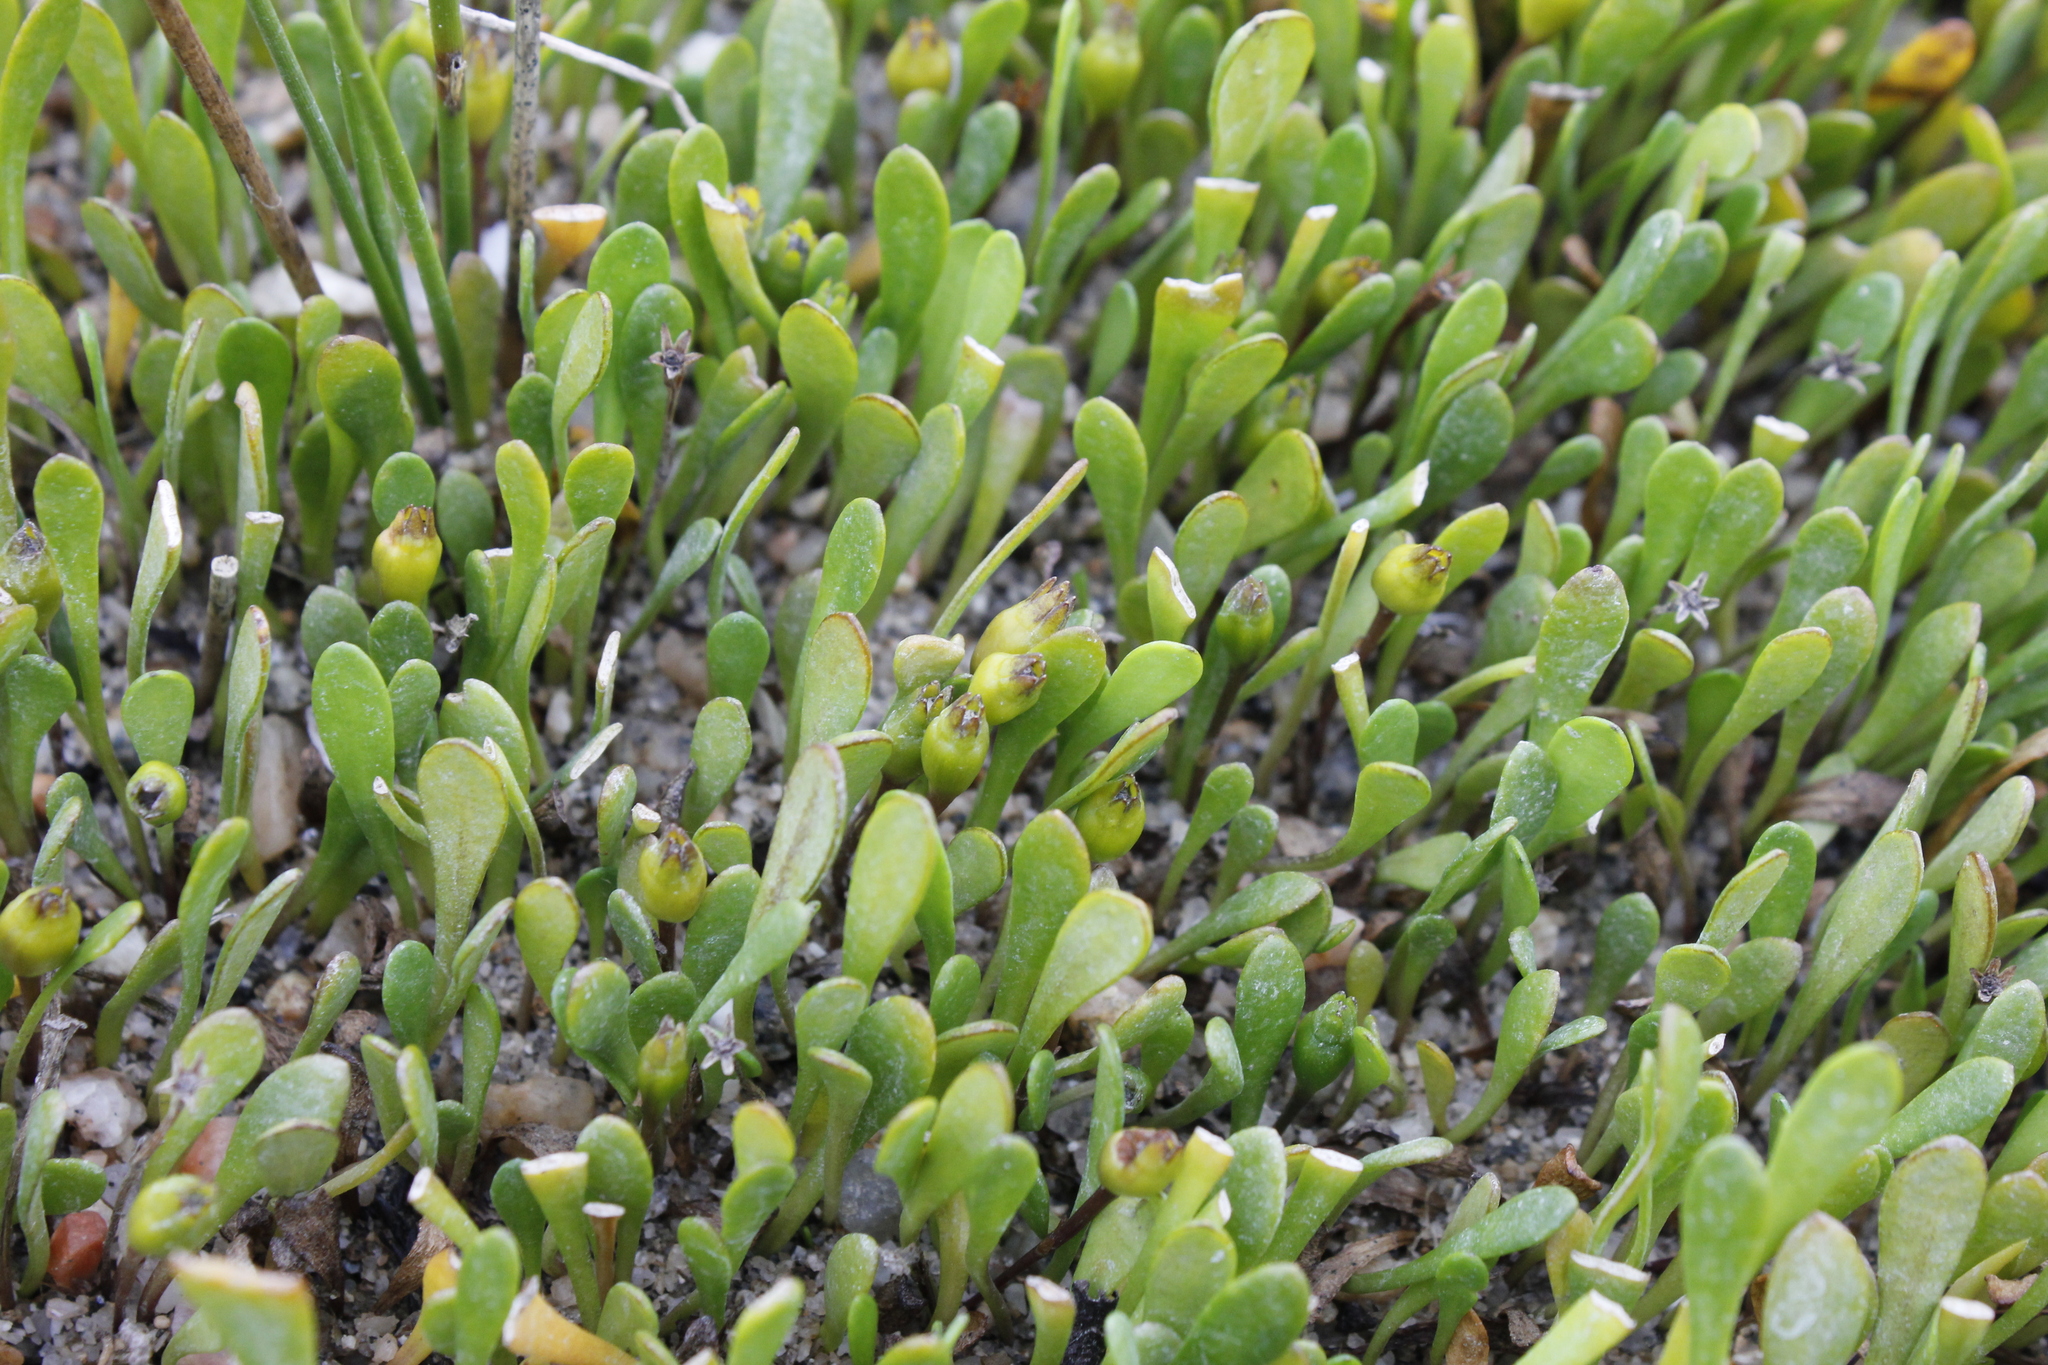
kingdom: Plantae
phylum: Tracheophyta
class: Magnoliopsida
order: Asterales
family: Goodeniaceae
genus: Goodenia
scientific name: Goodenia radicans
